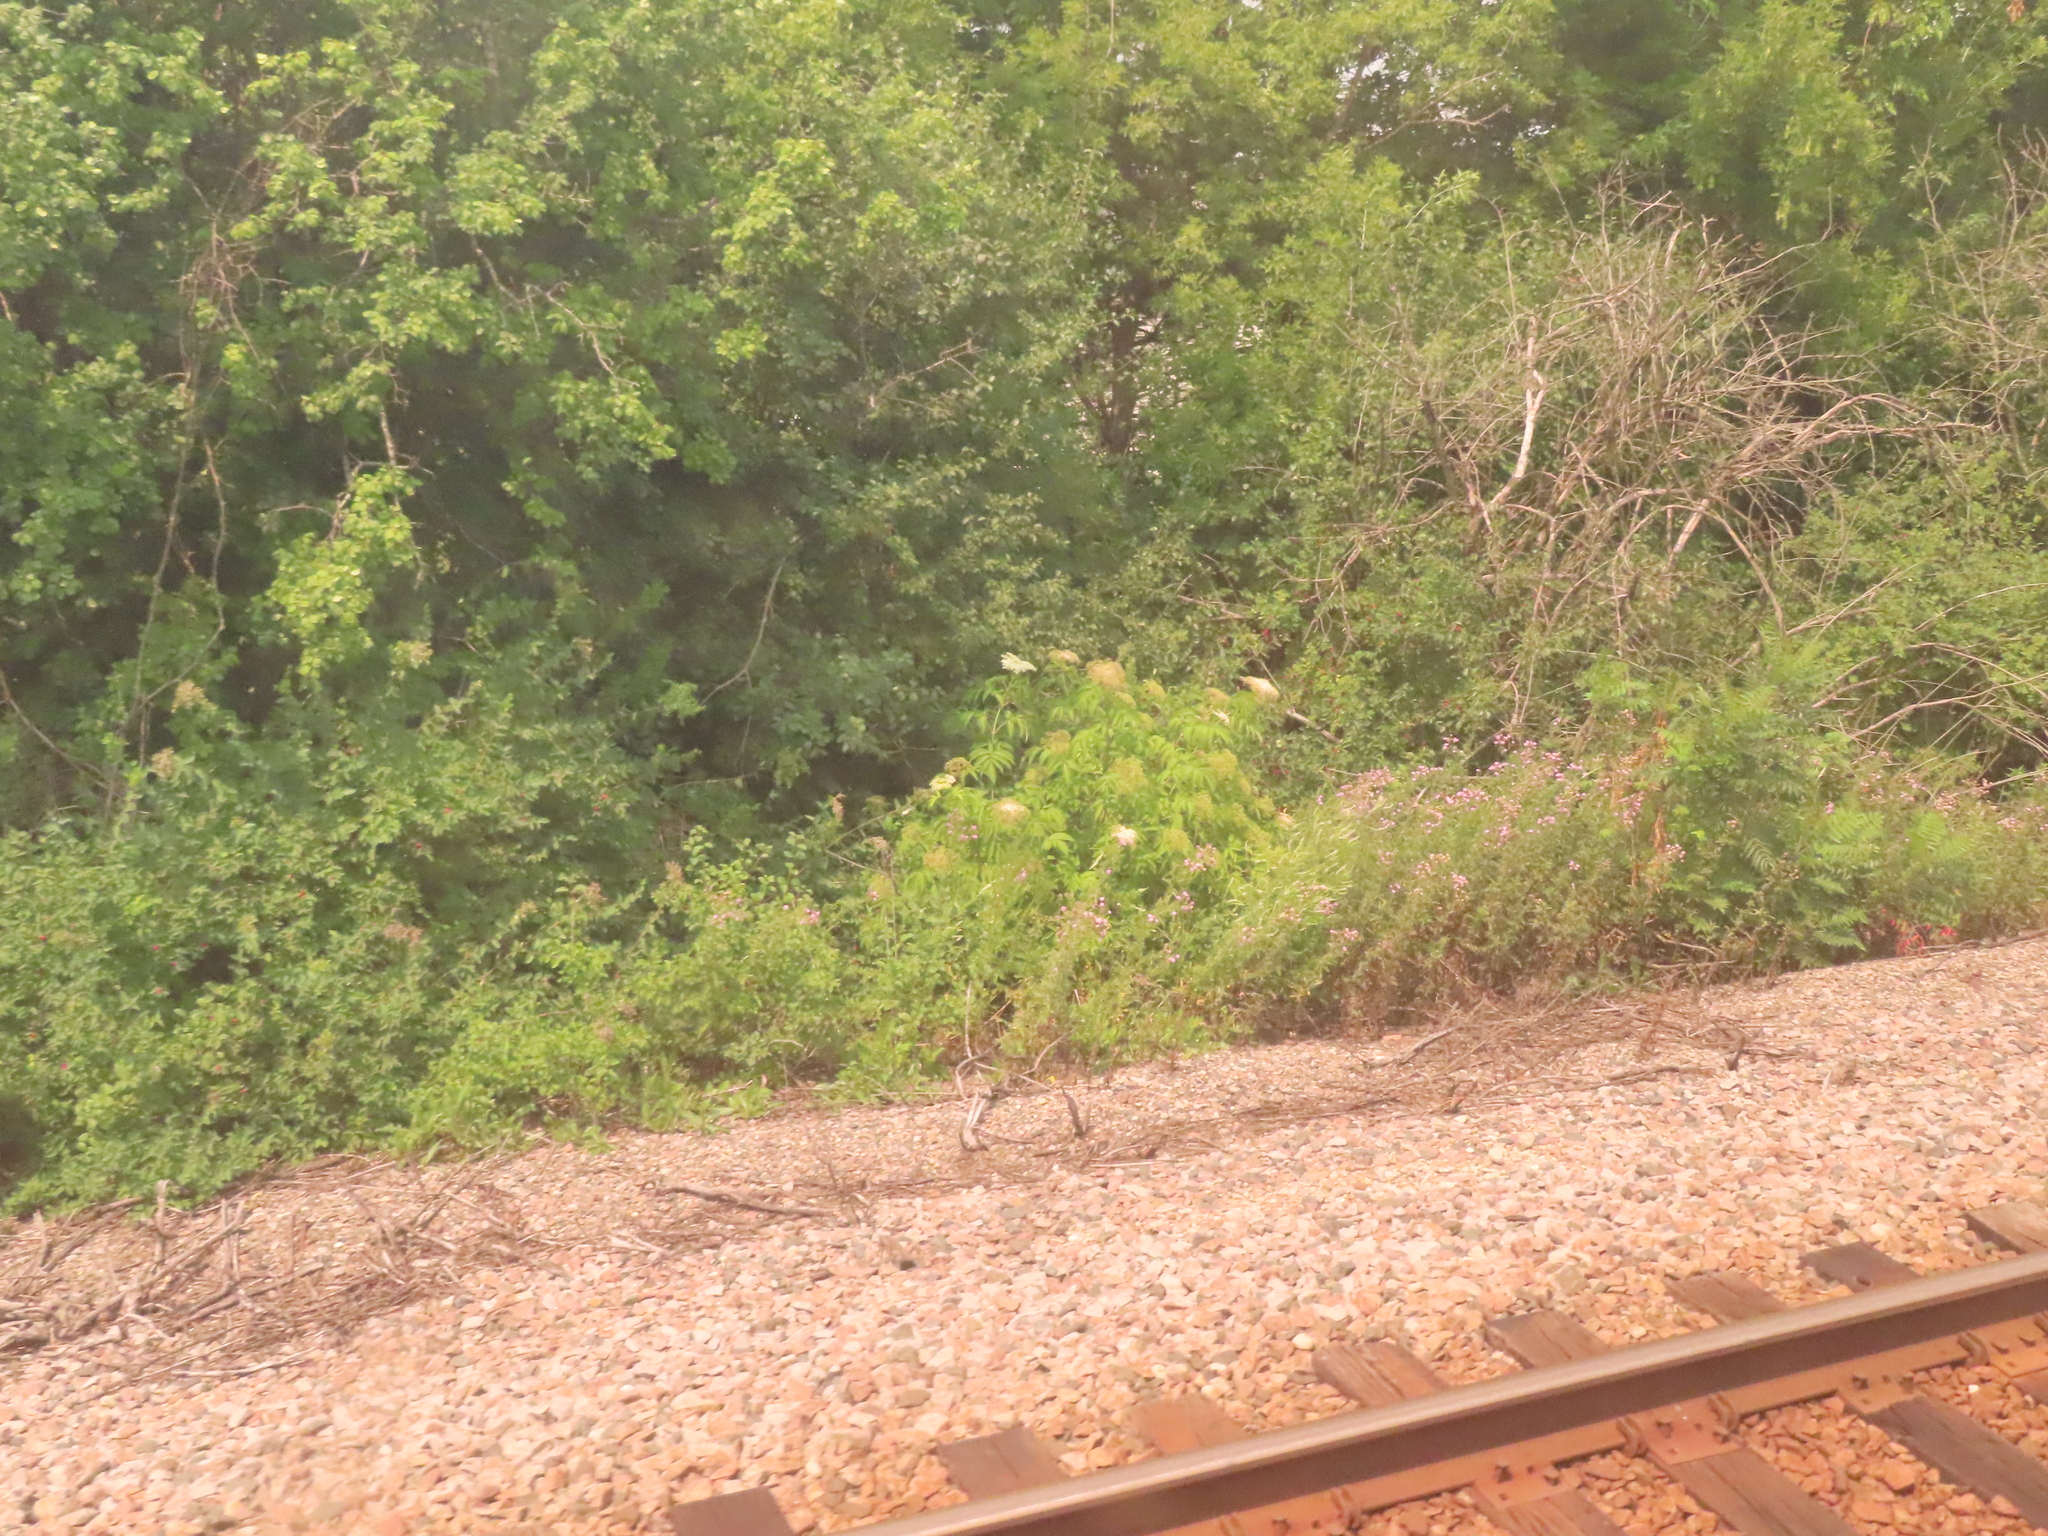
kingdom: Plantae
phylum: Tracheophyta
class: Magnoliopsida
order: Asterales
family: Asteraceae
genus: Cirsium
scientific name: Cirsium arvense
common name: Creeping thistle
